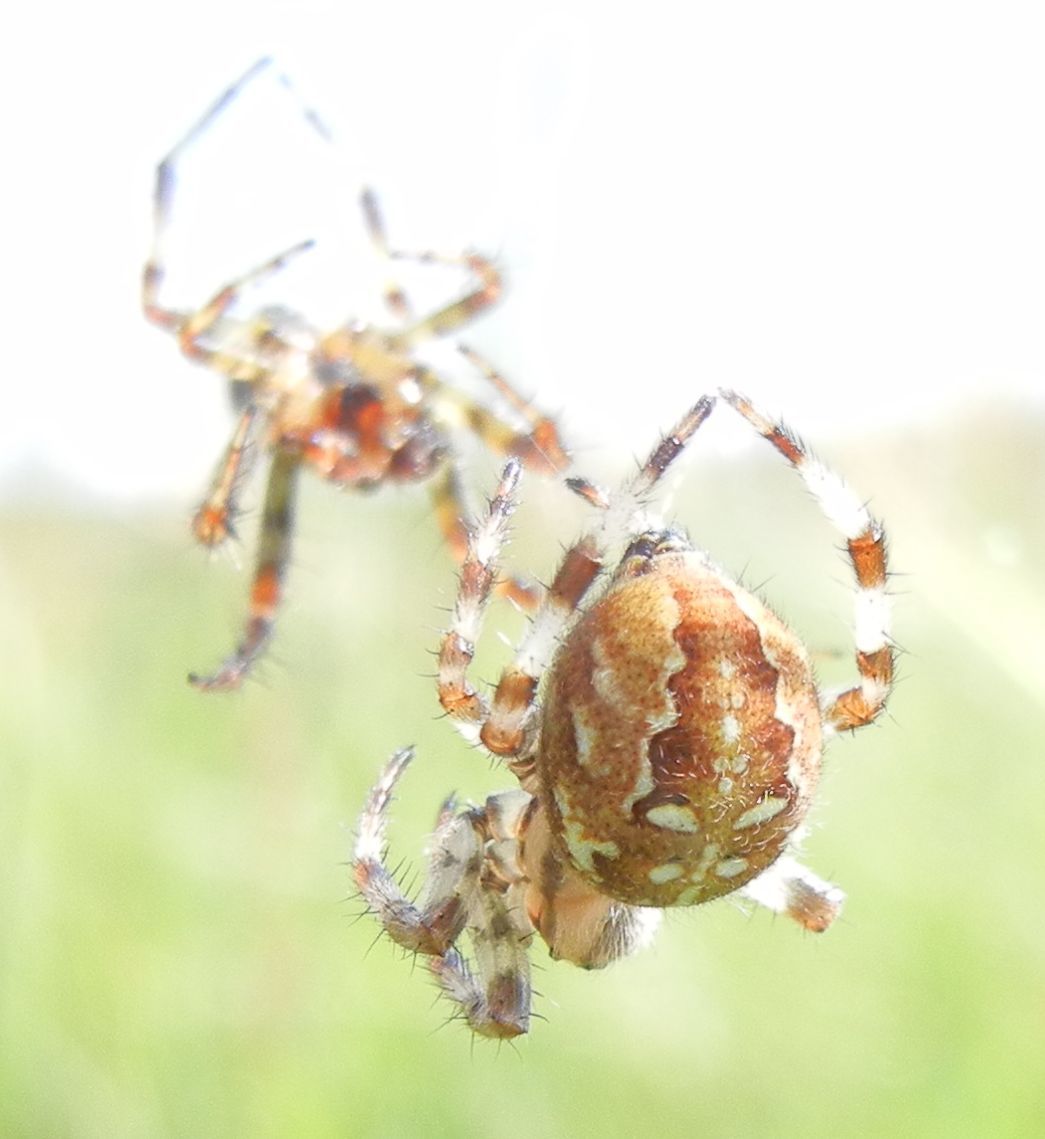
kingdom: Animalia
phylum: Arthropoda
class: Arachnida
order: Araneae
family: Araneidae
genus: Araneus
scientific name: Araneus quadratus
